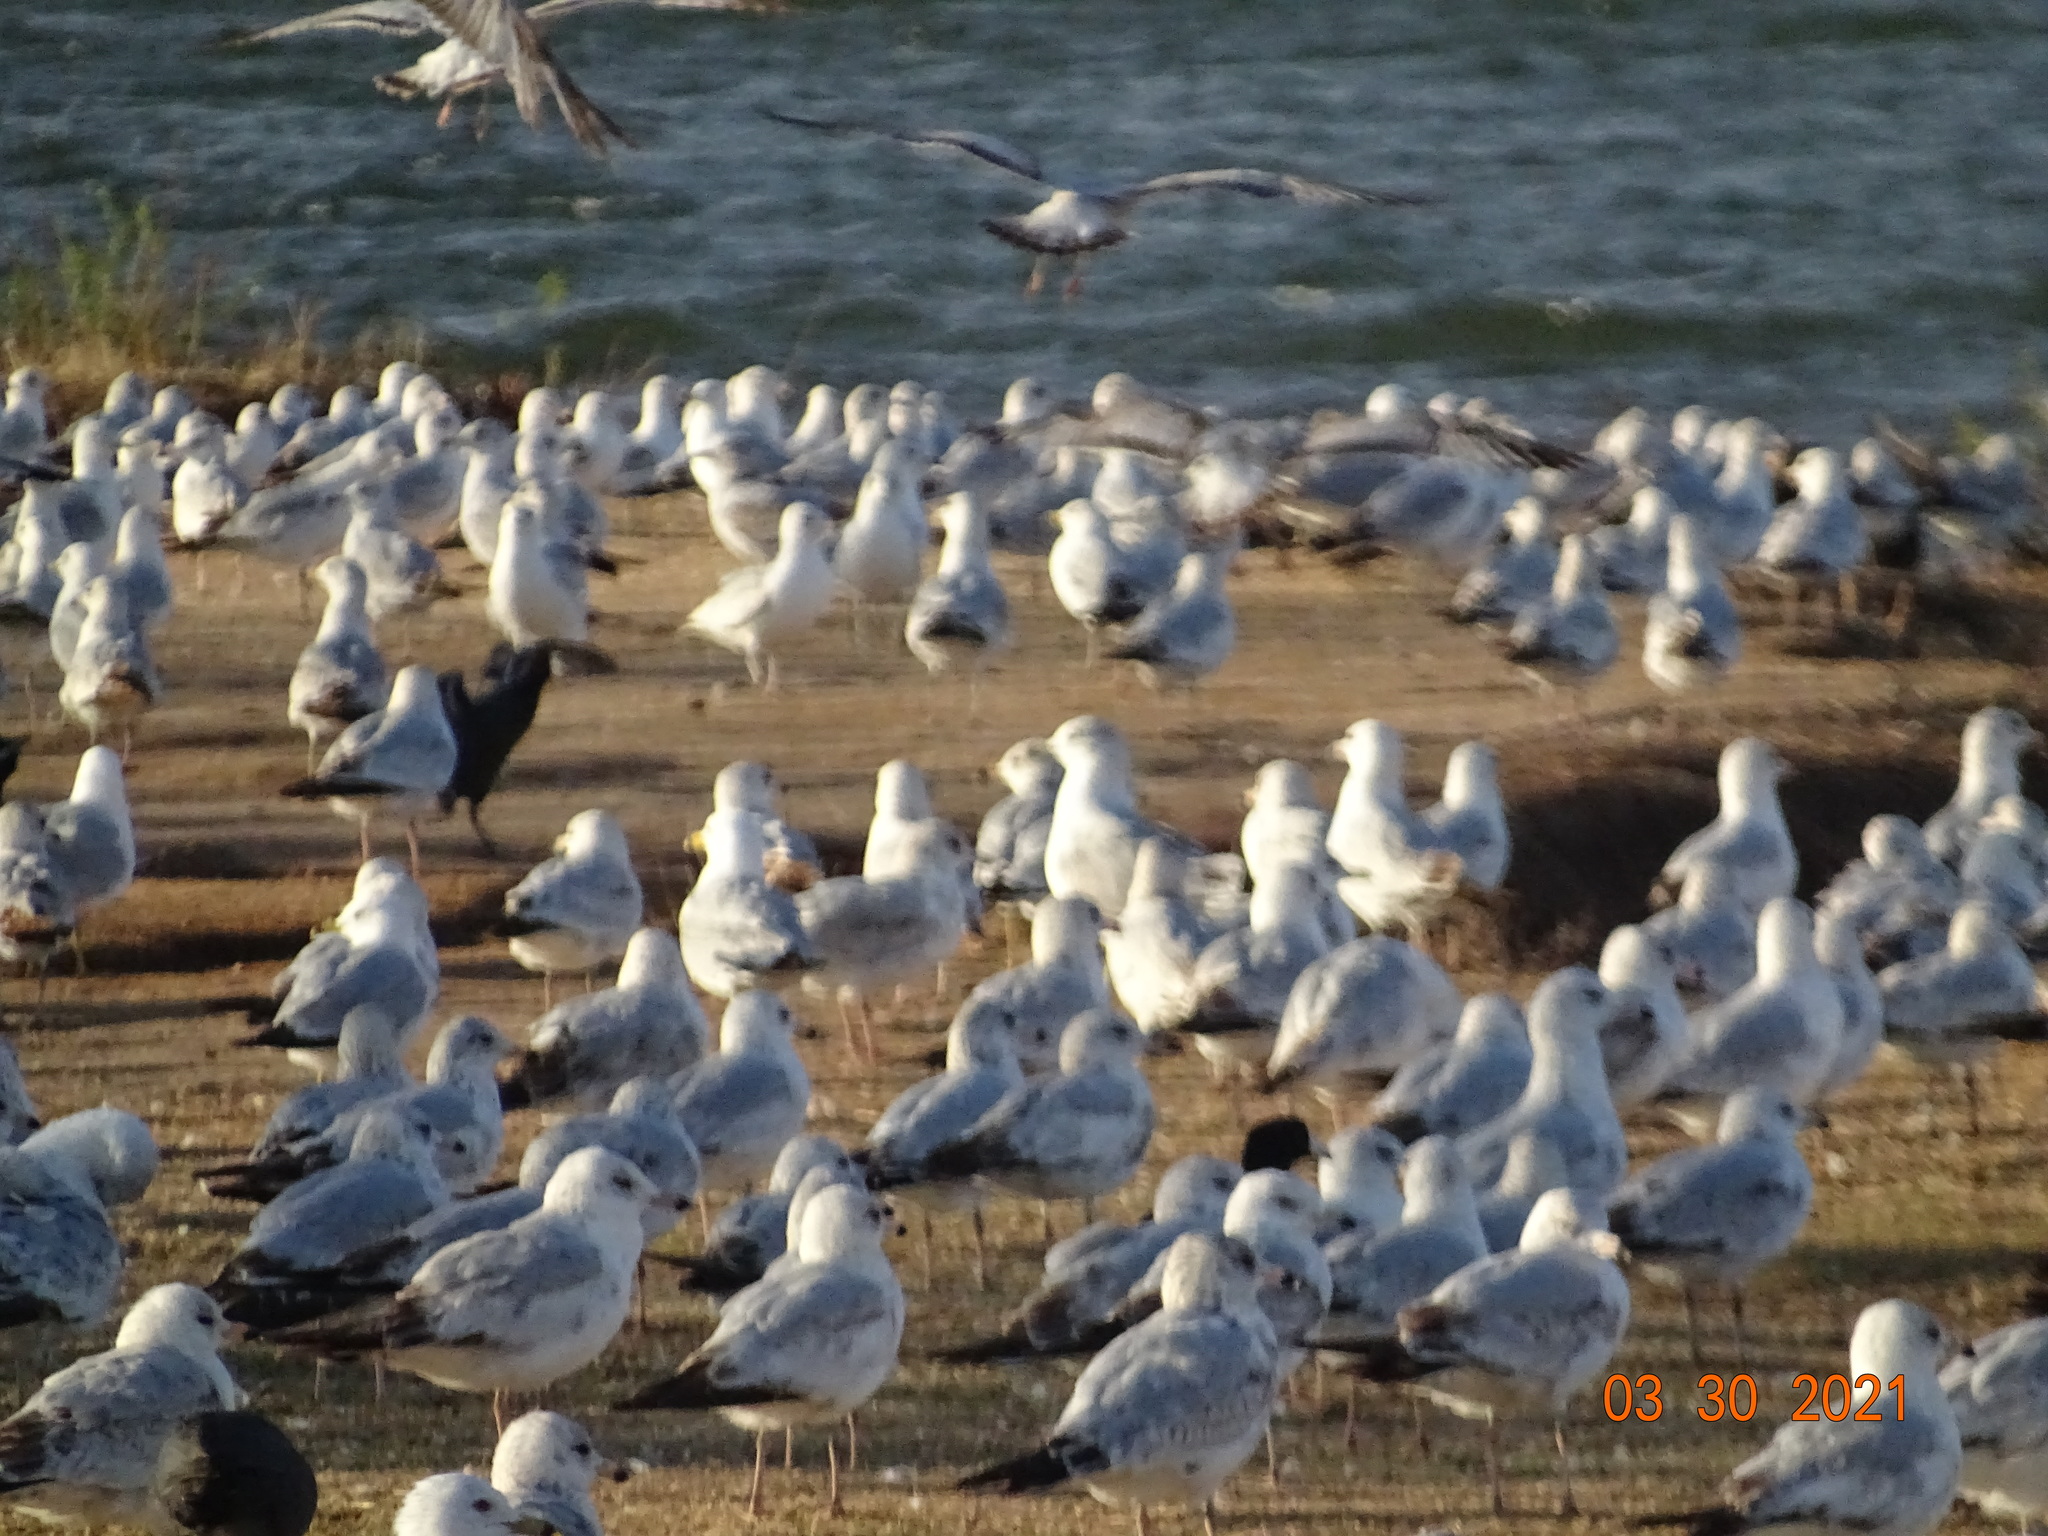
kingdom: Animalia
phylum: Chordata
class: Aves
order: Charadriiformes
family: Laridae
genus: Larus
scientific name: Larus delawarensis
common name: Ring-billed gull
